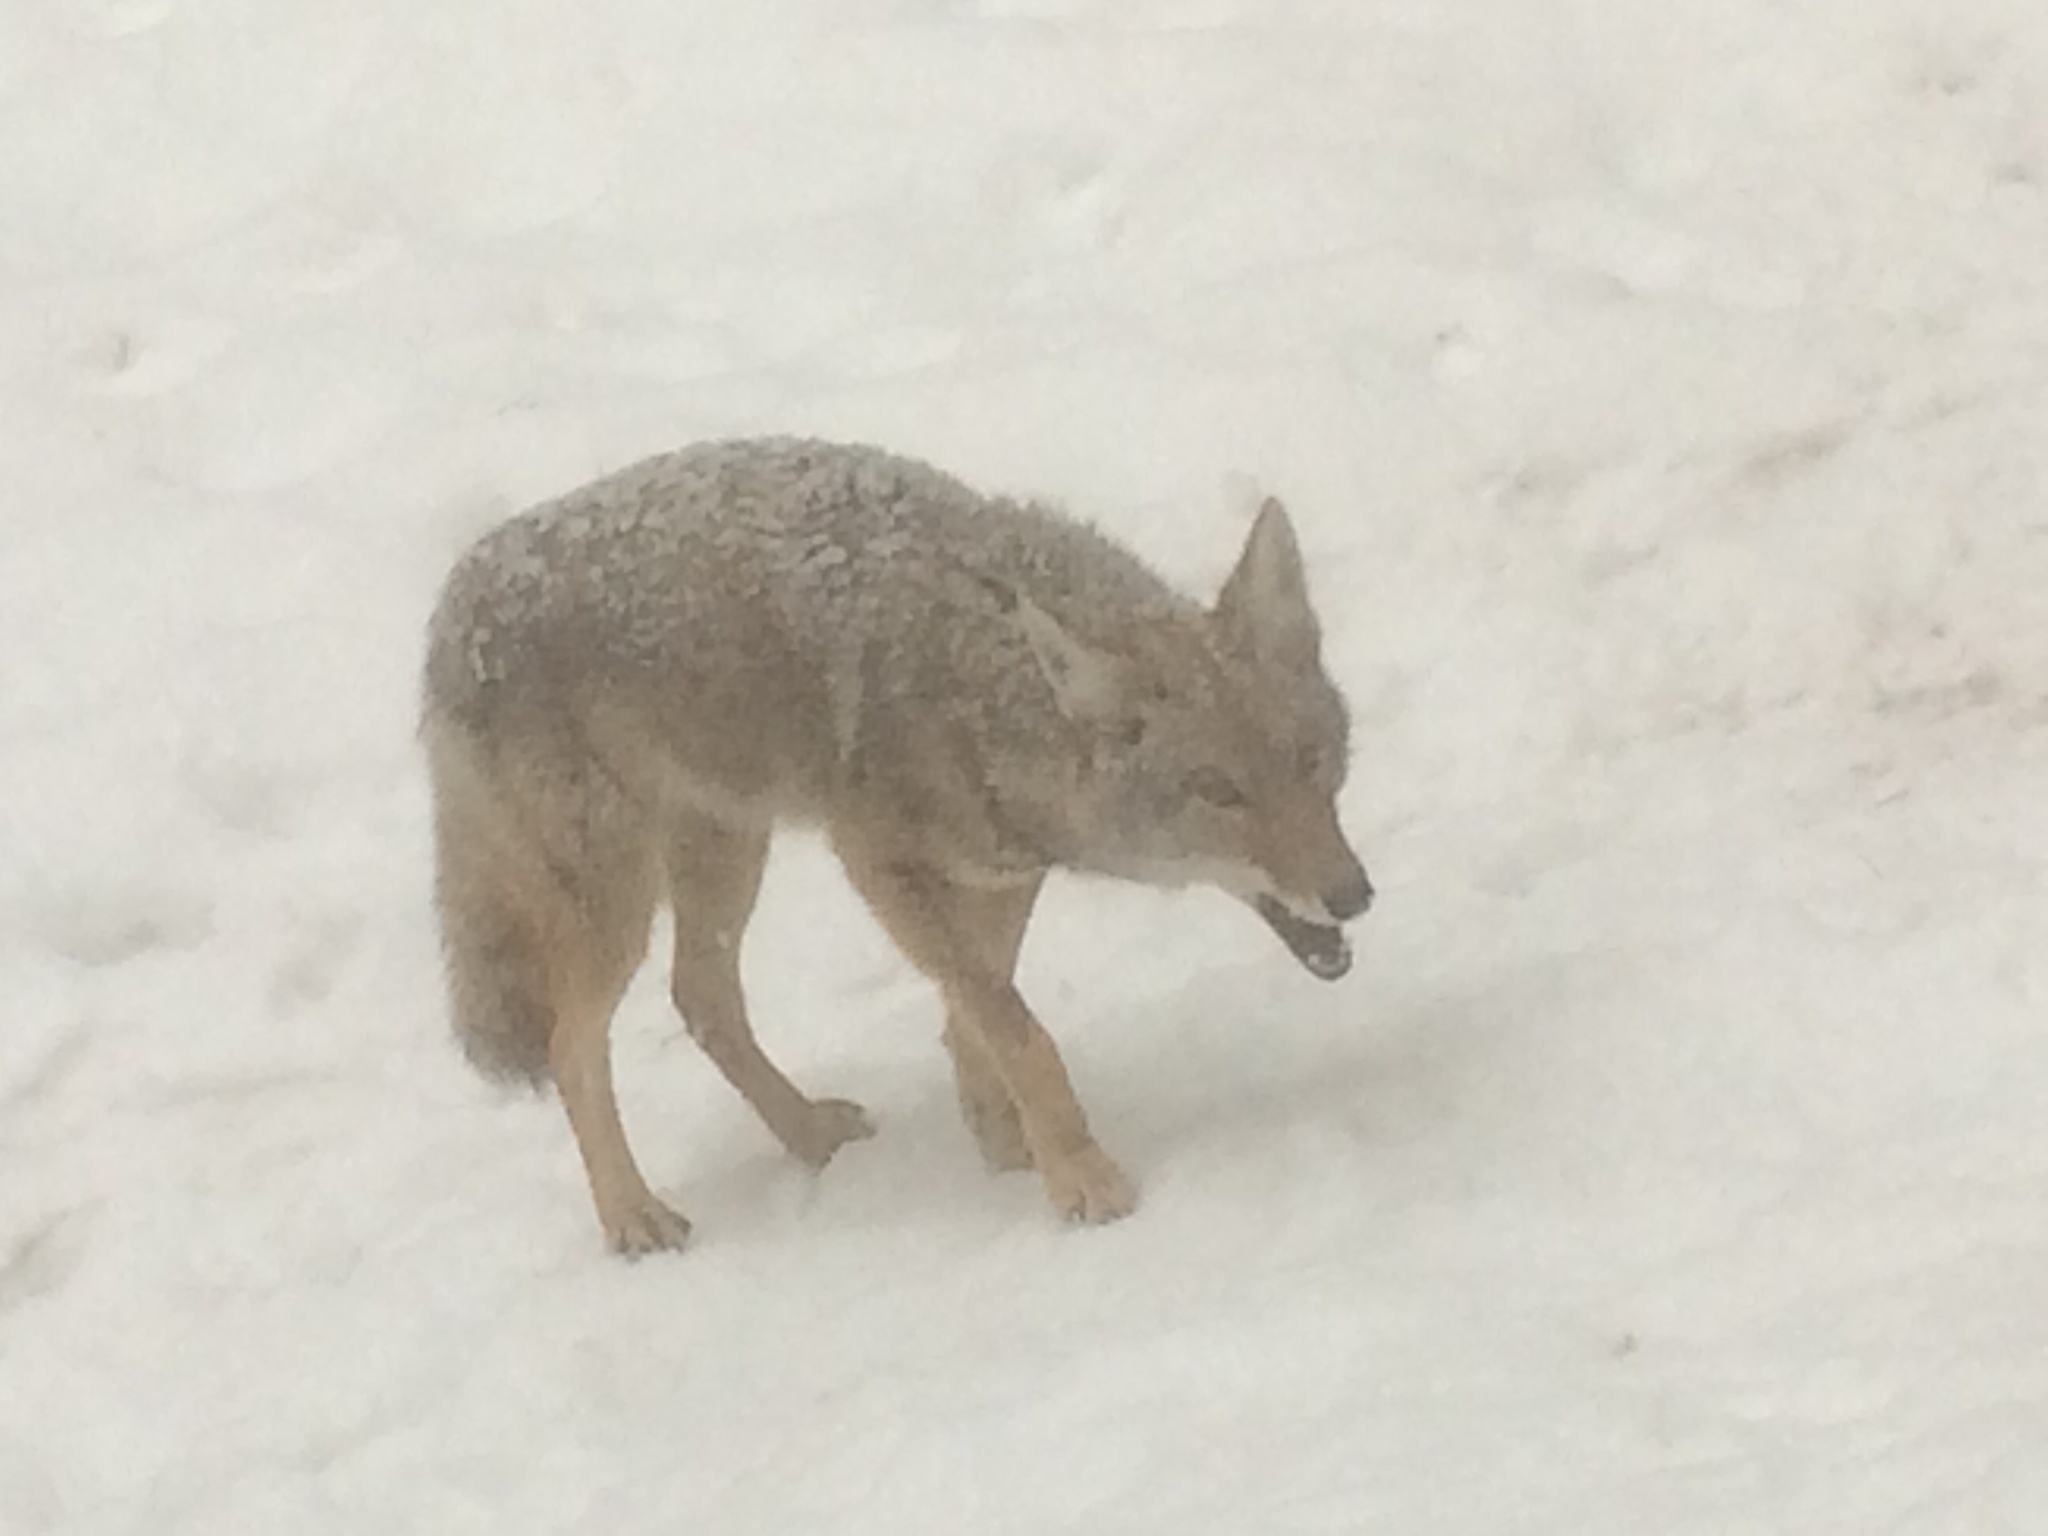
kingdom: Animalia
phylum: Chordata
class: Mammalia
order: Carnivora
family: Canidae
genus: Canis
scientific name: Canis latrans
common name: Coyote
